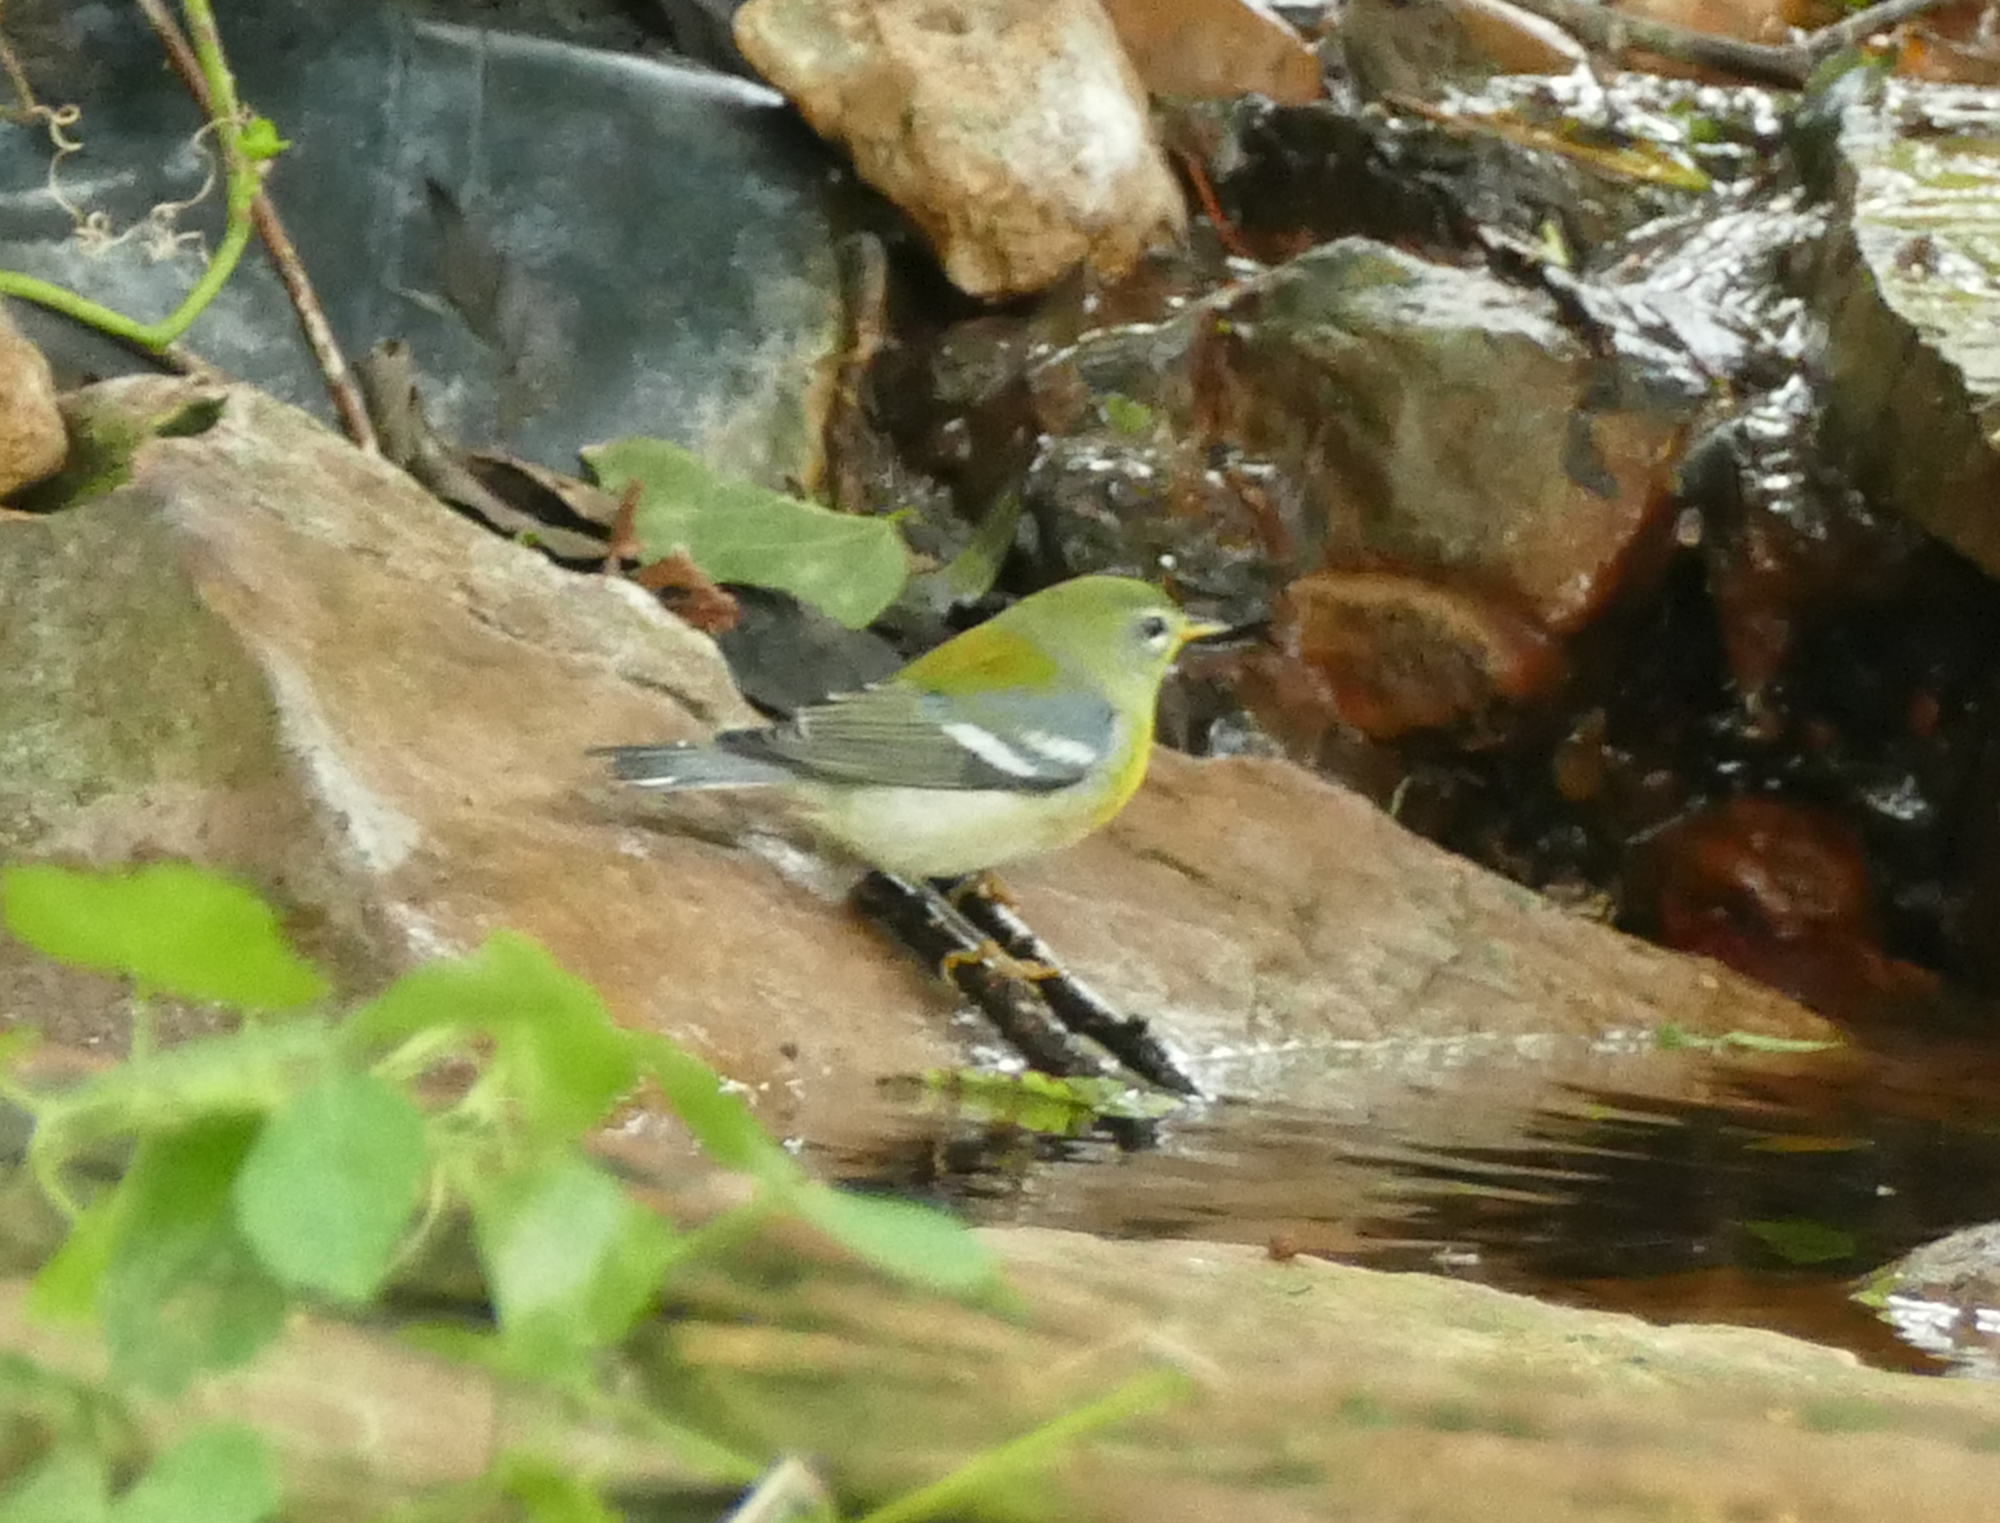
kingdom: Animalia
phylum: Chordata
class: Aves
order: Passeriformes
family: Parulidae
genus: Setophaga
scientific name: Setophaga americana
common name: Northern parula
